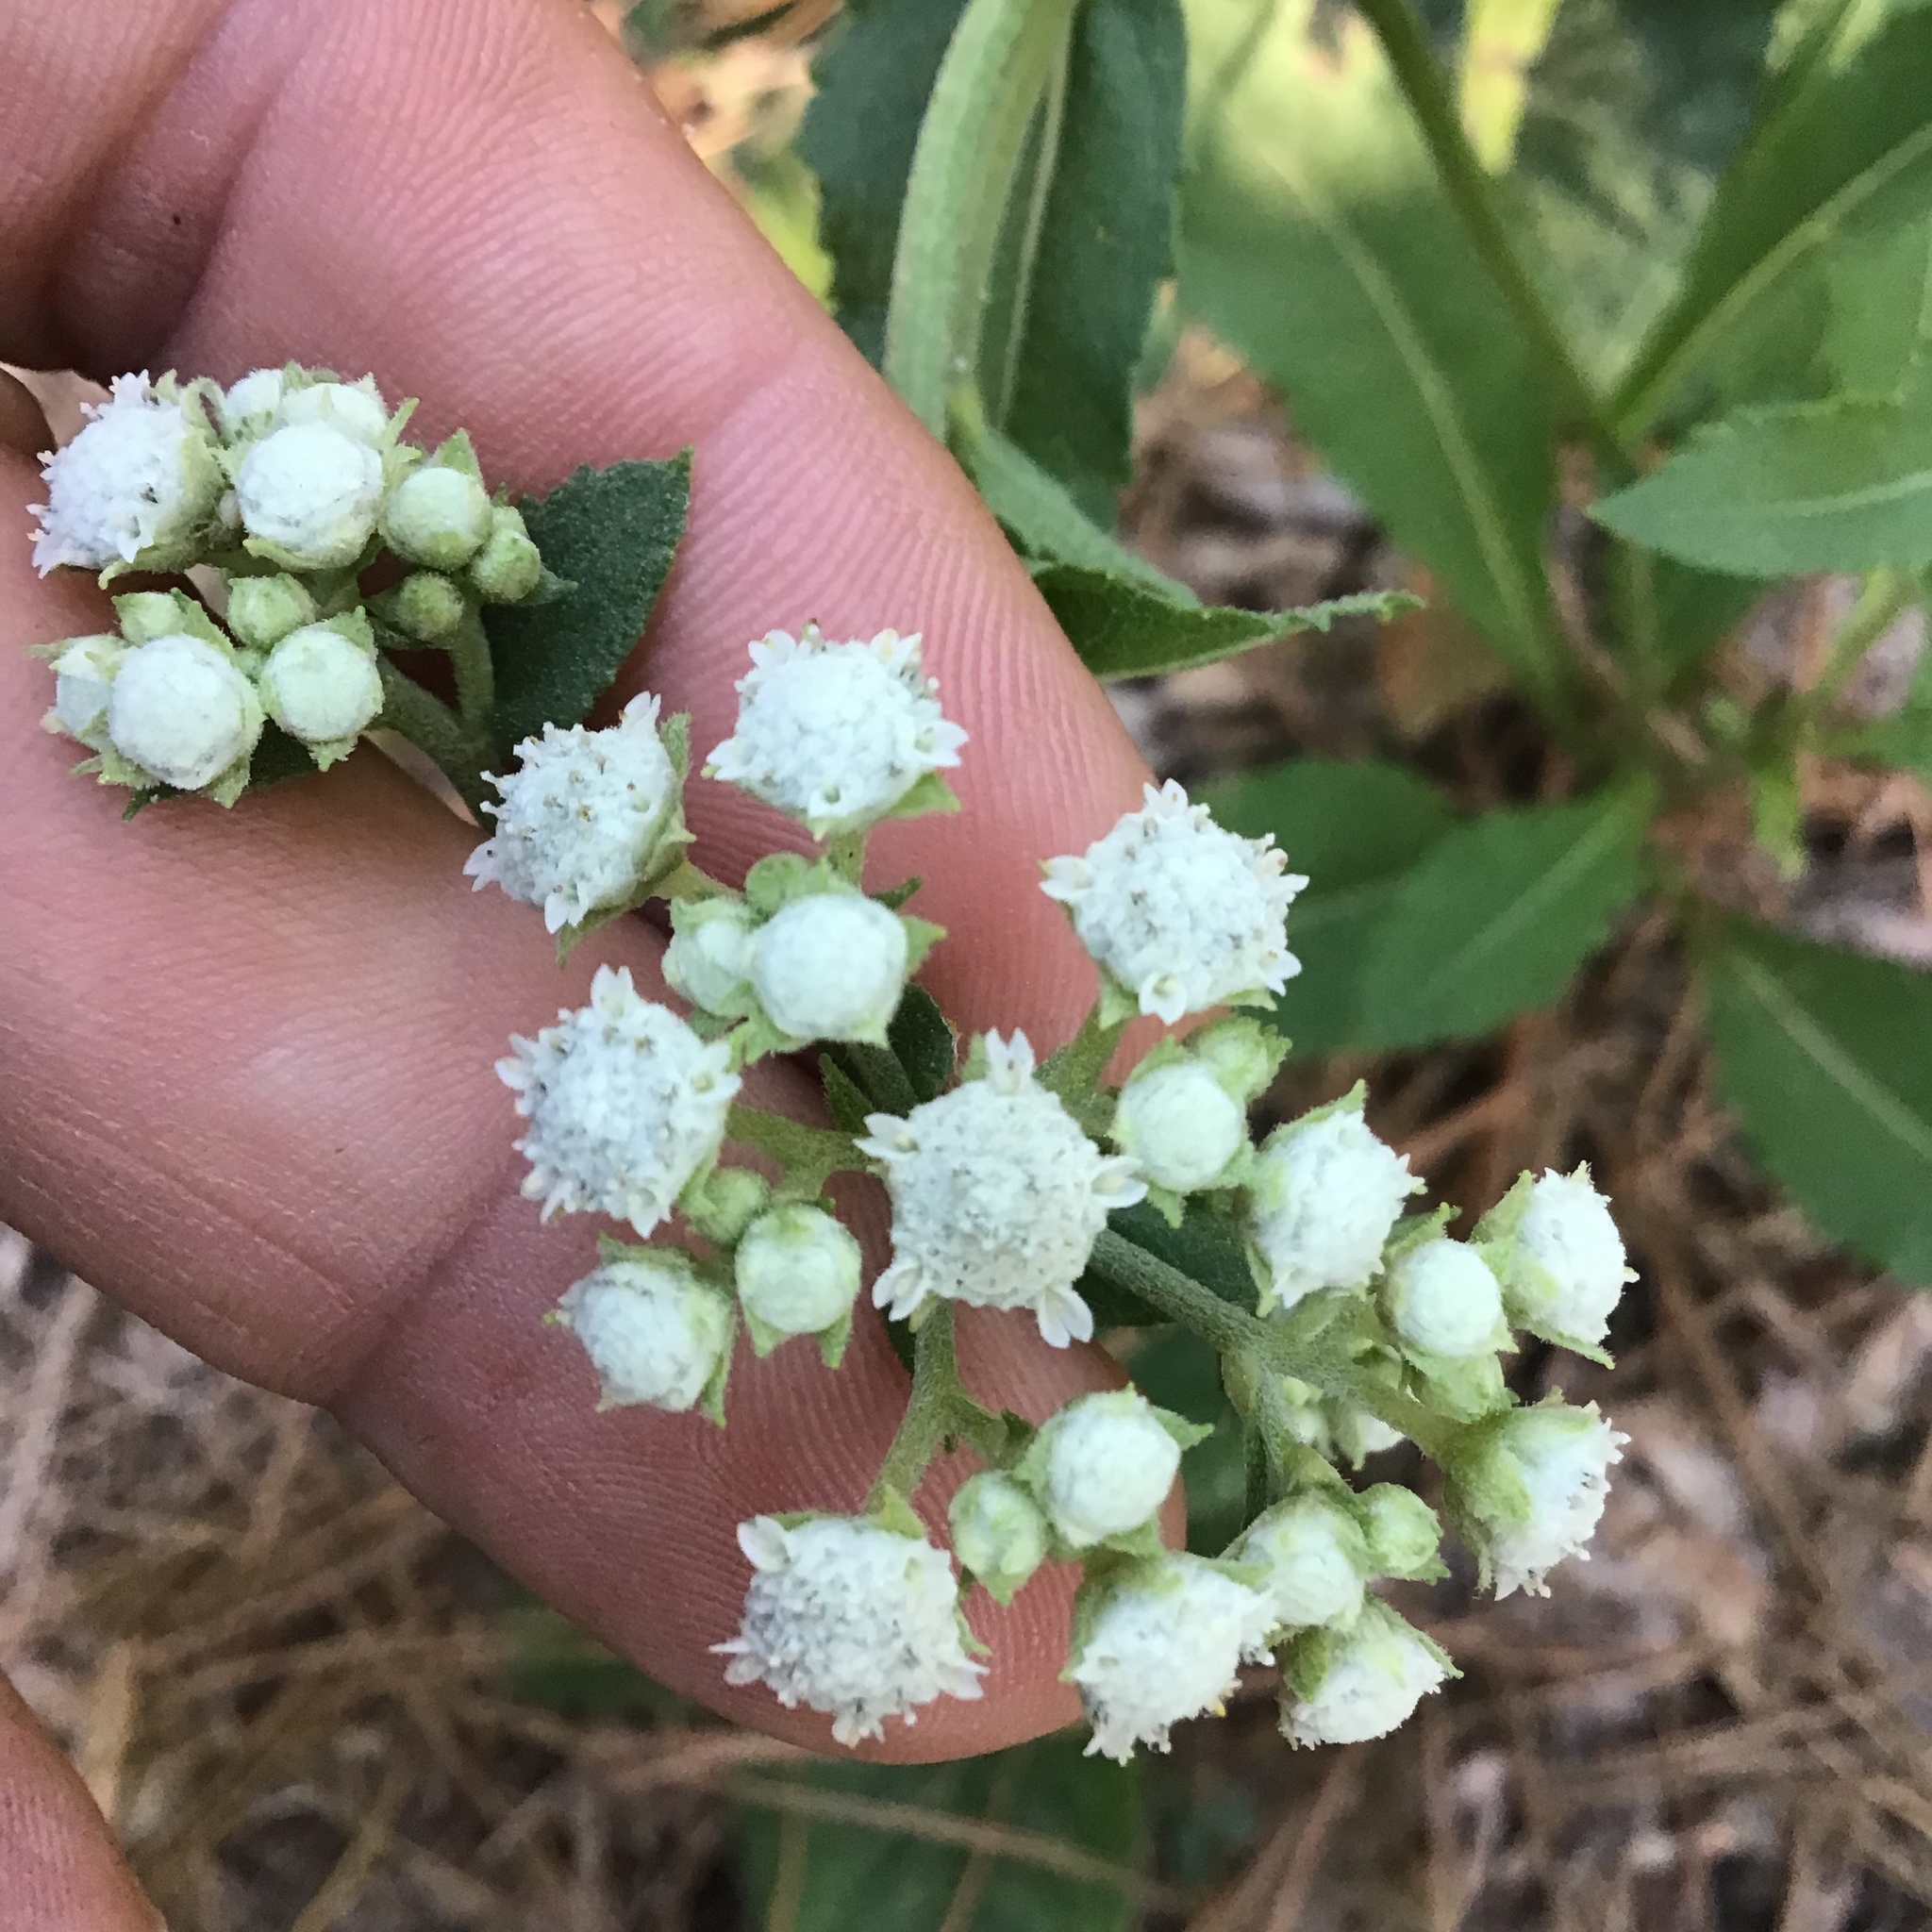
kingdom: Plantae
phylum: Tracheophyta
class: Magnoliopsida
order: Asterales
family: Asteraceae
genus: Parthenium
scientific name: Parthenium integrifolium
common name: American feverfew
